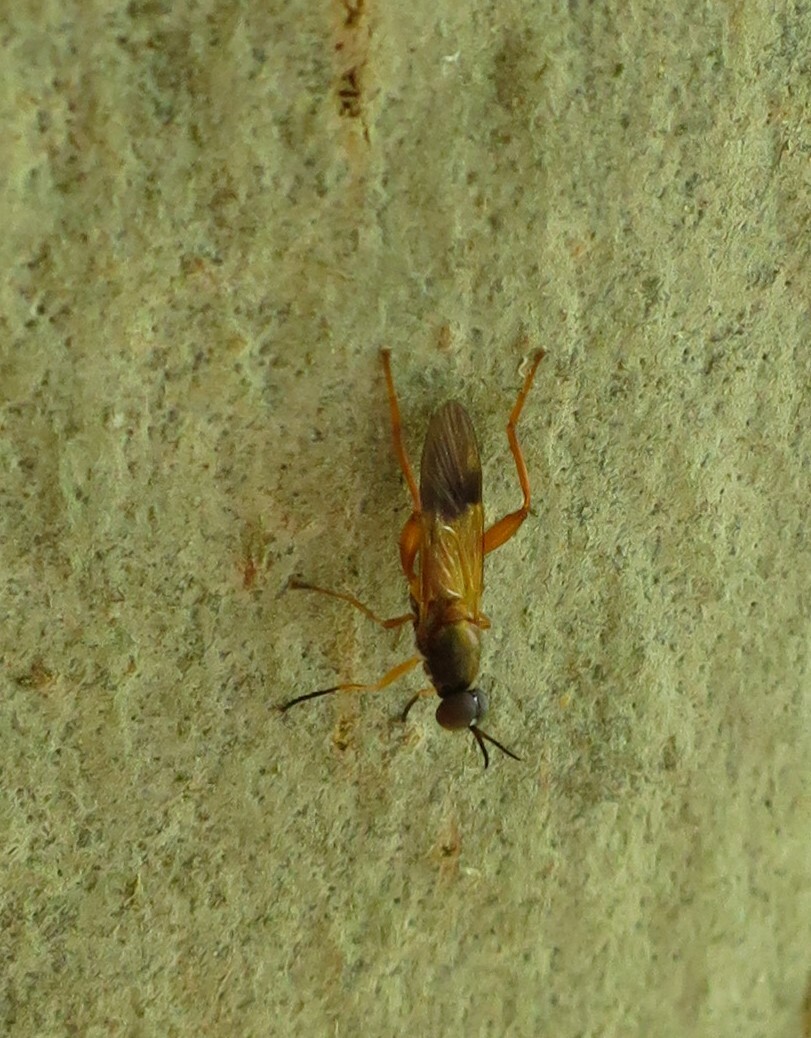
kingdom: Animalia
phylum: Arthropoda
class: Insecta
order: Diptera
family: Stratiomyidae
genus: Benhamyia
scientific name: Benhamyia apicalis
